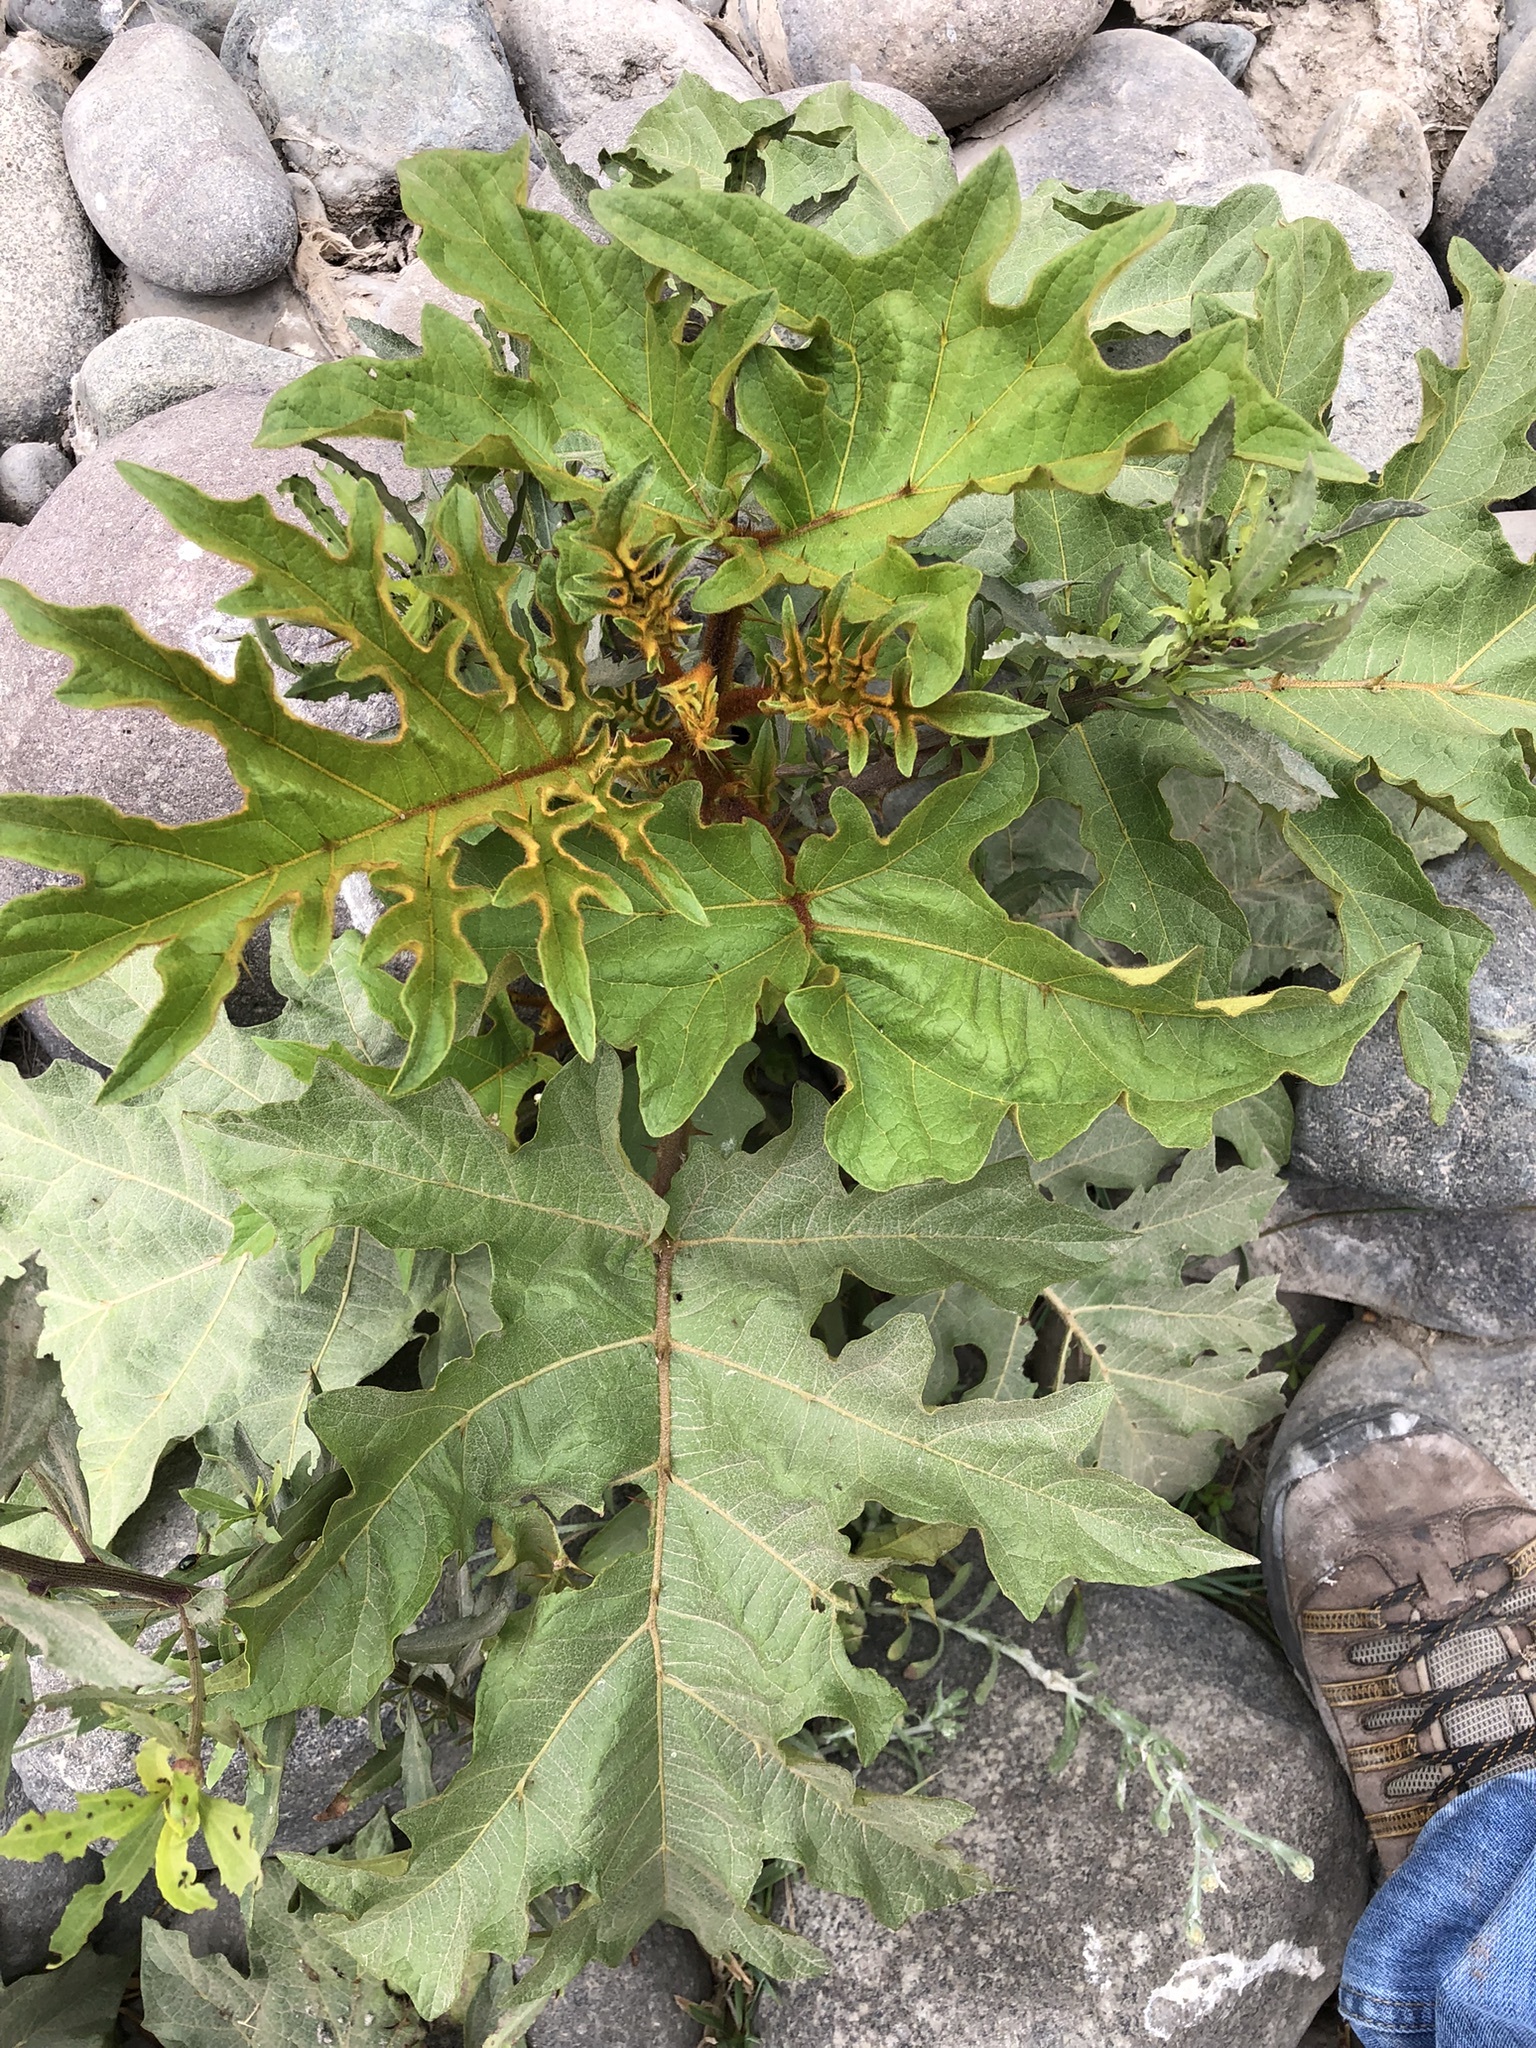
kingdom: Plantae
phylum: Tracheophyta
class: Magnoliopsida
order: Solanales
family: Solanaceae
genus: Solanum
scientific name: Solanum chrysotrichum
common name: Nightshade
